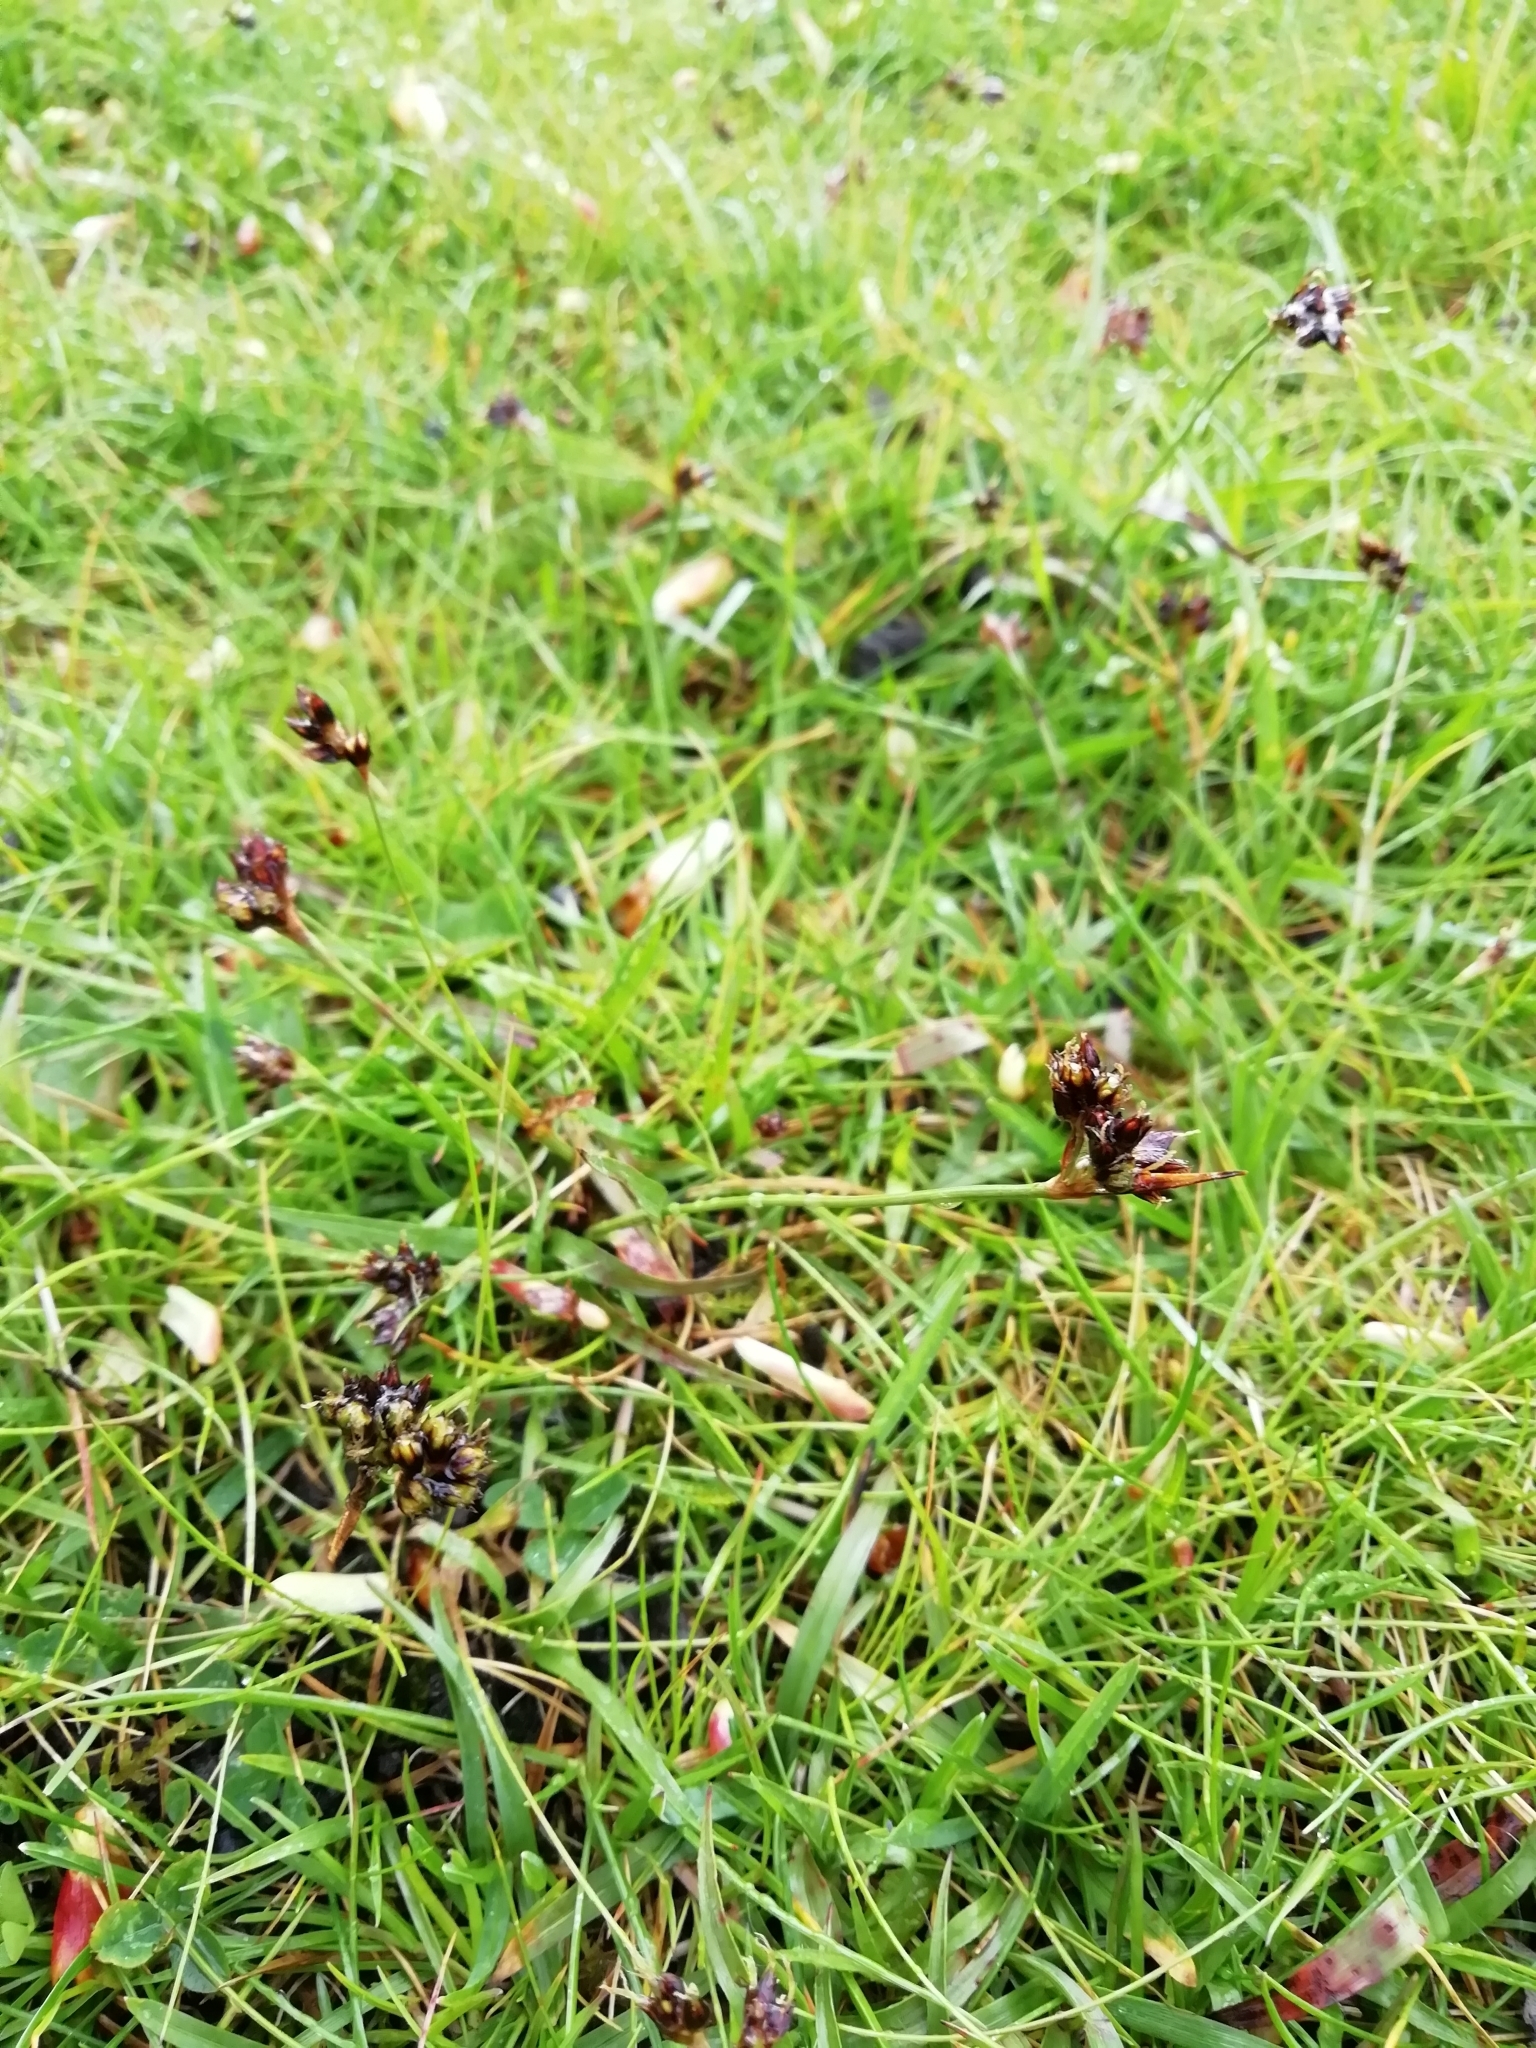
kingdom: Plantae
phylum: Tracheophyta
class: Liliopsida
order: Poales
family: Juncaceae
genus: Luzula
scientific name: Luzula campestris
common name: Field wood-rush
